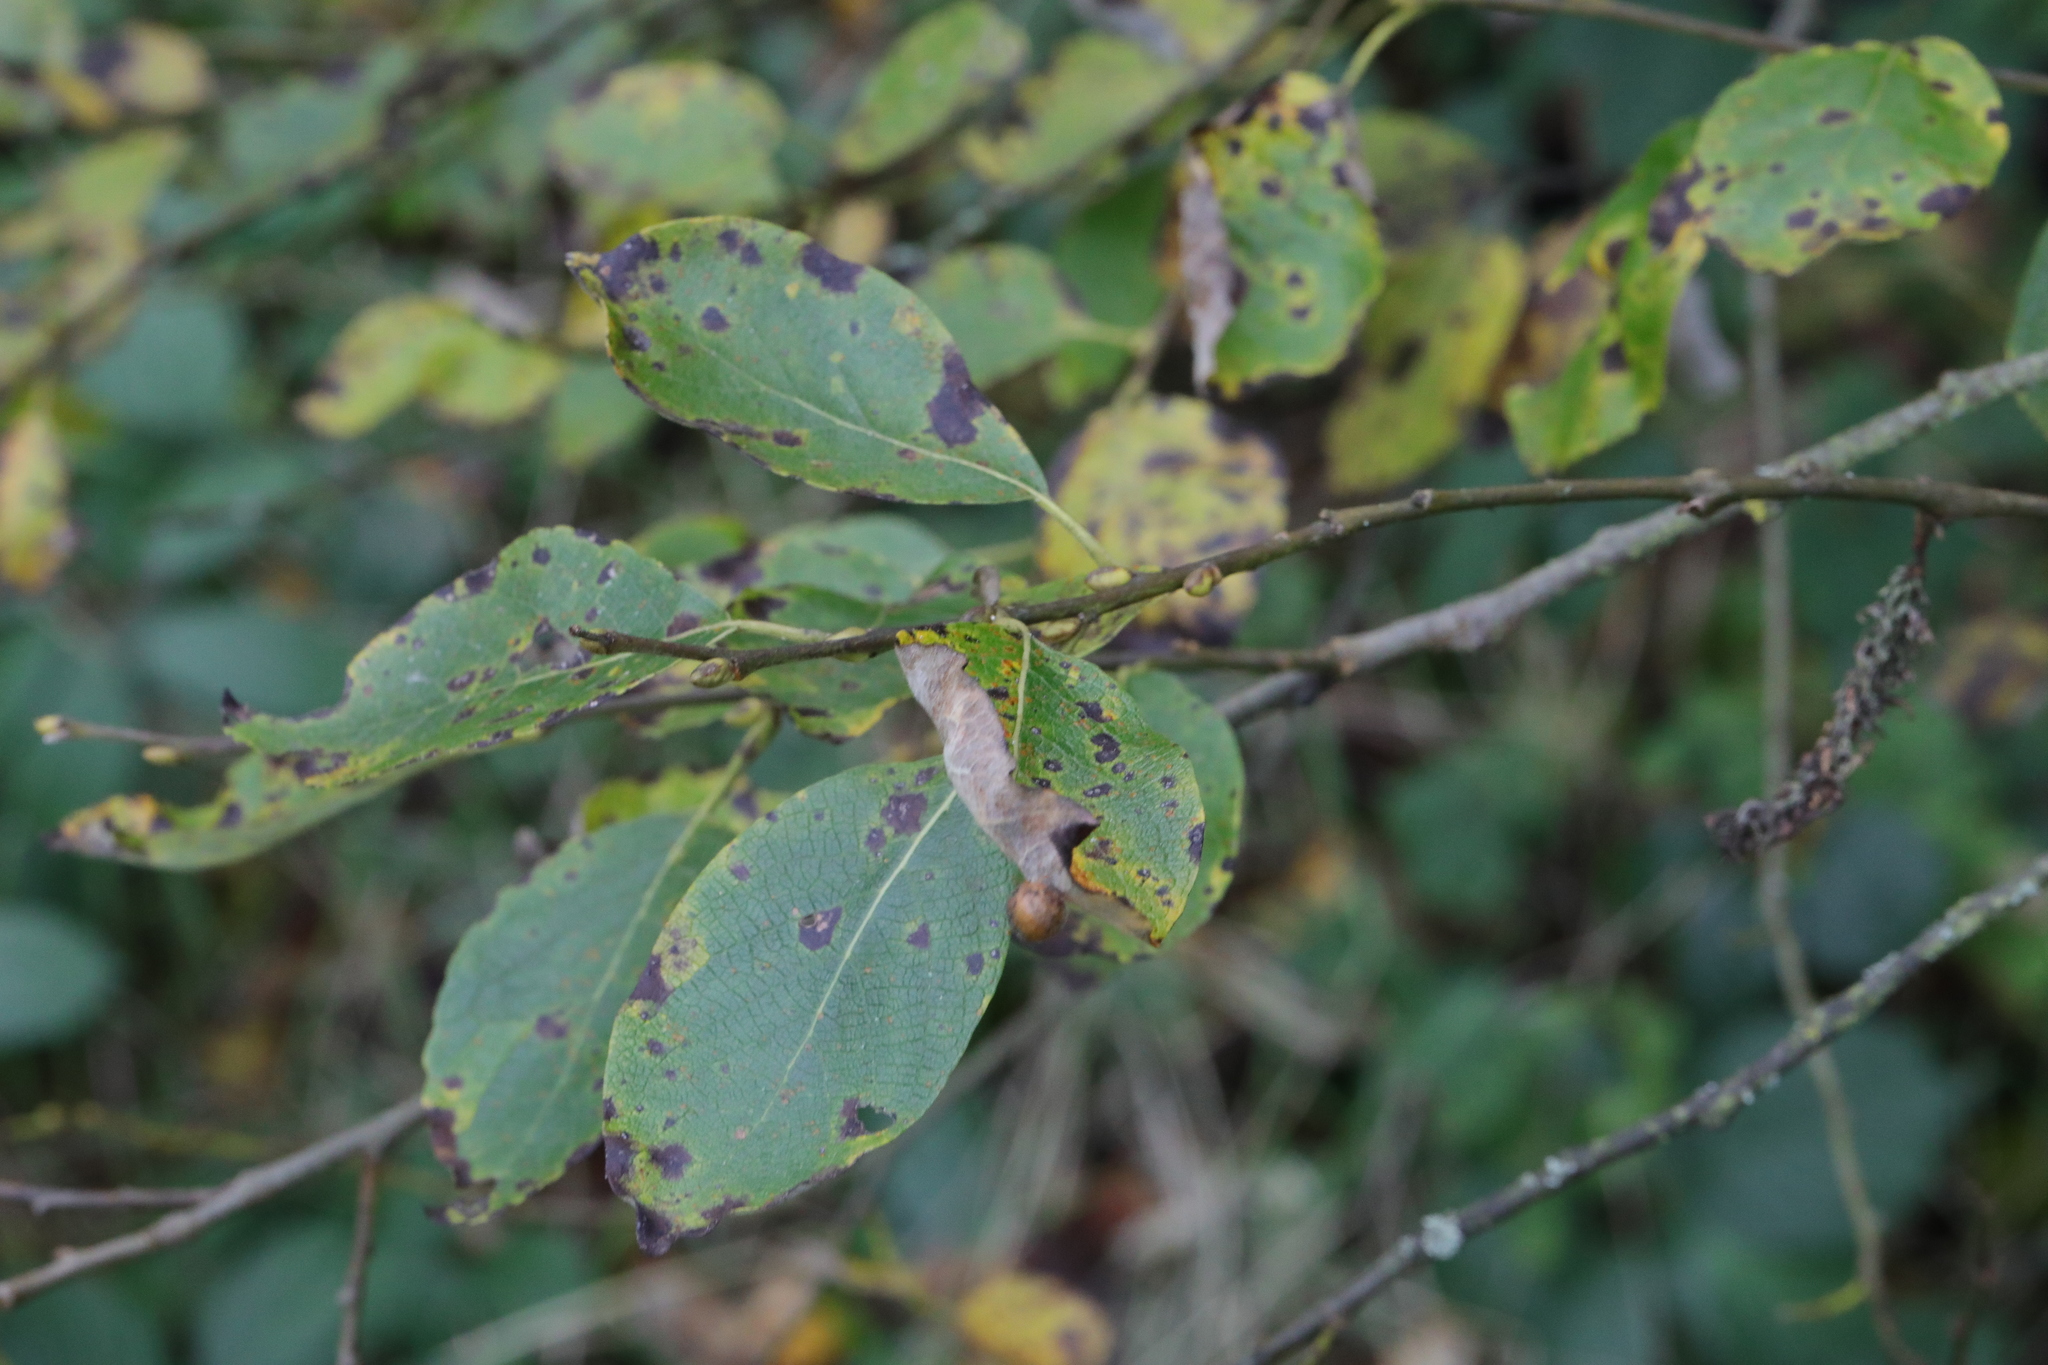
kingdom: Plantae
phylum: Tracheophyta
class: Magnoliopsida
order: Malpighiales
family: Salicaceae
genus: Salix
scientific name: Salix caprea
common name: Goat willow
